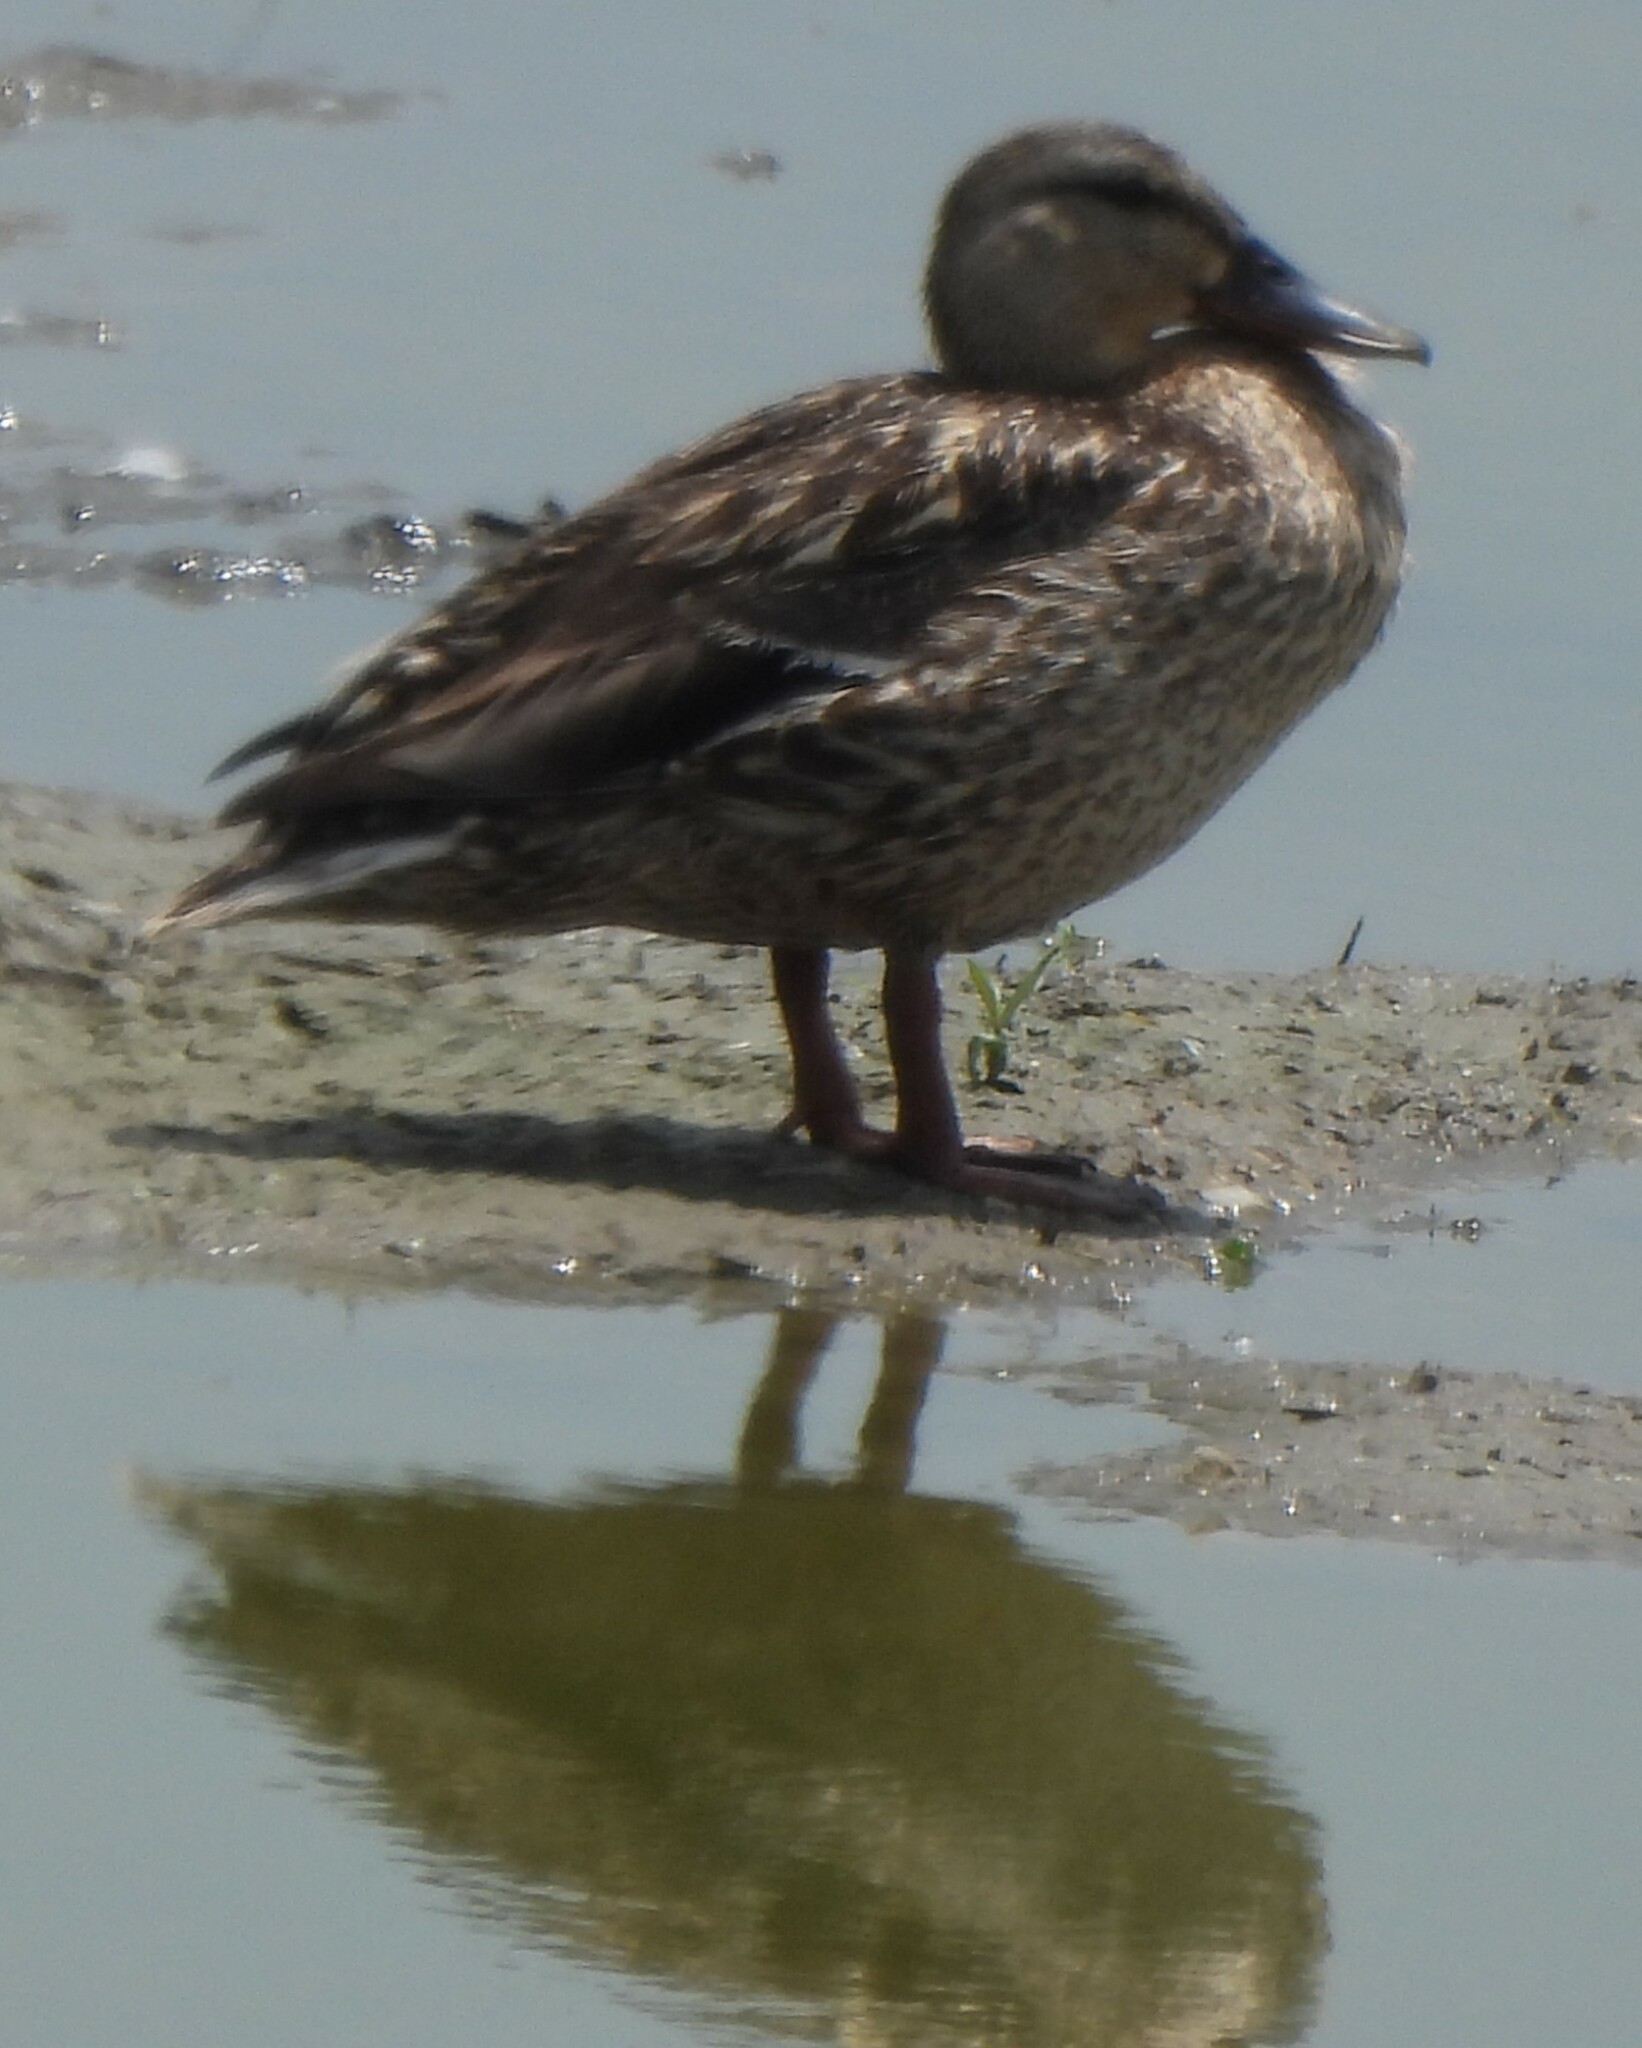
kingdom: Animalia
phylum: Chordata
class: Aves
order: Anseriformes
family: Anatidae
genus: Anas
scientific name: Anas platyrhynchos
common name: Mallard
